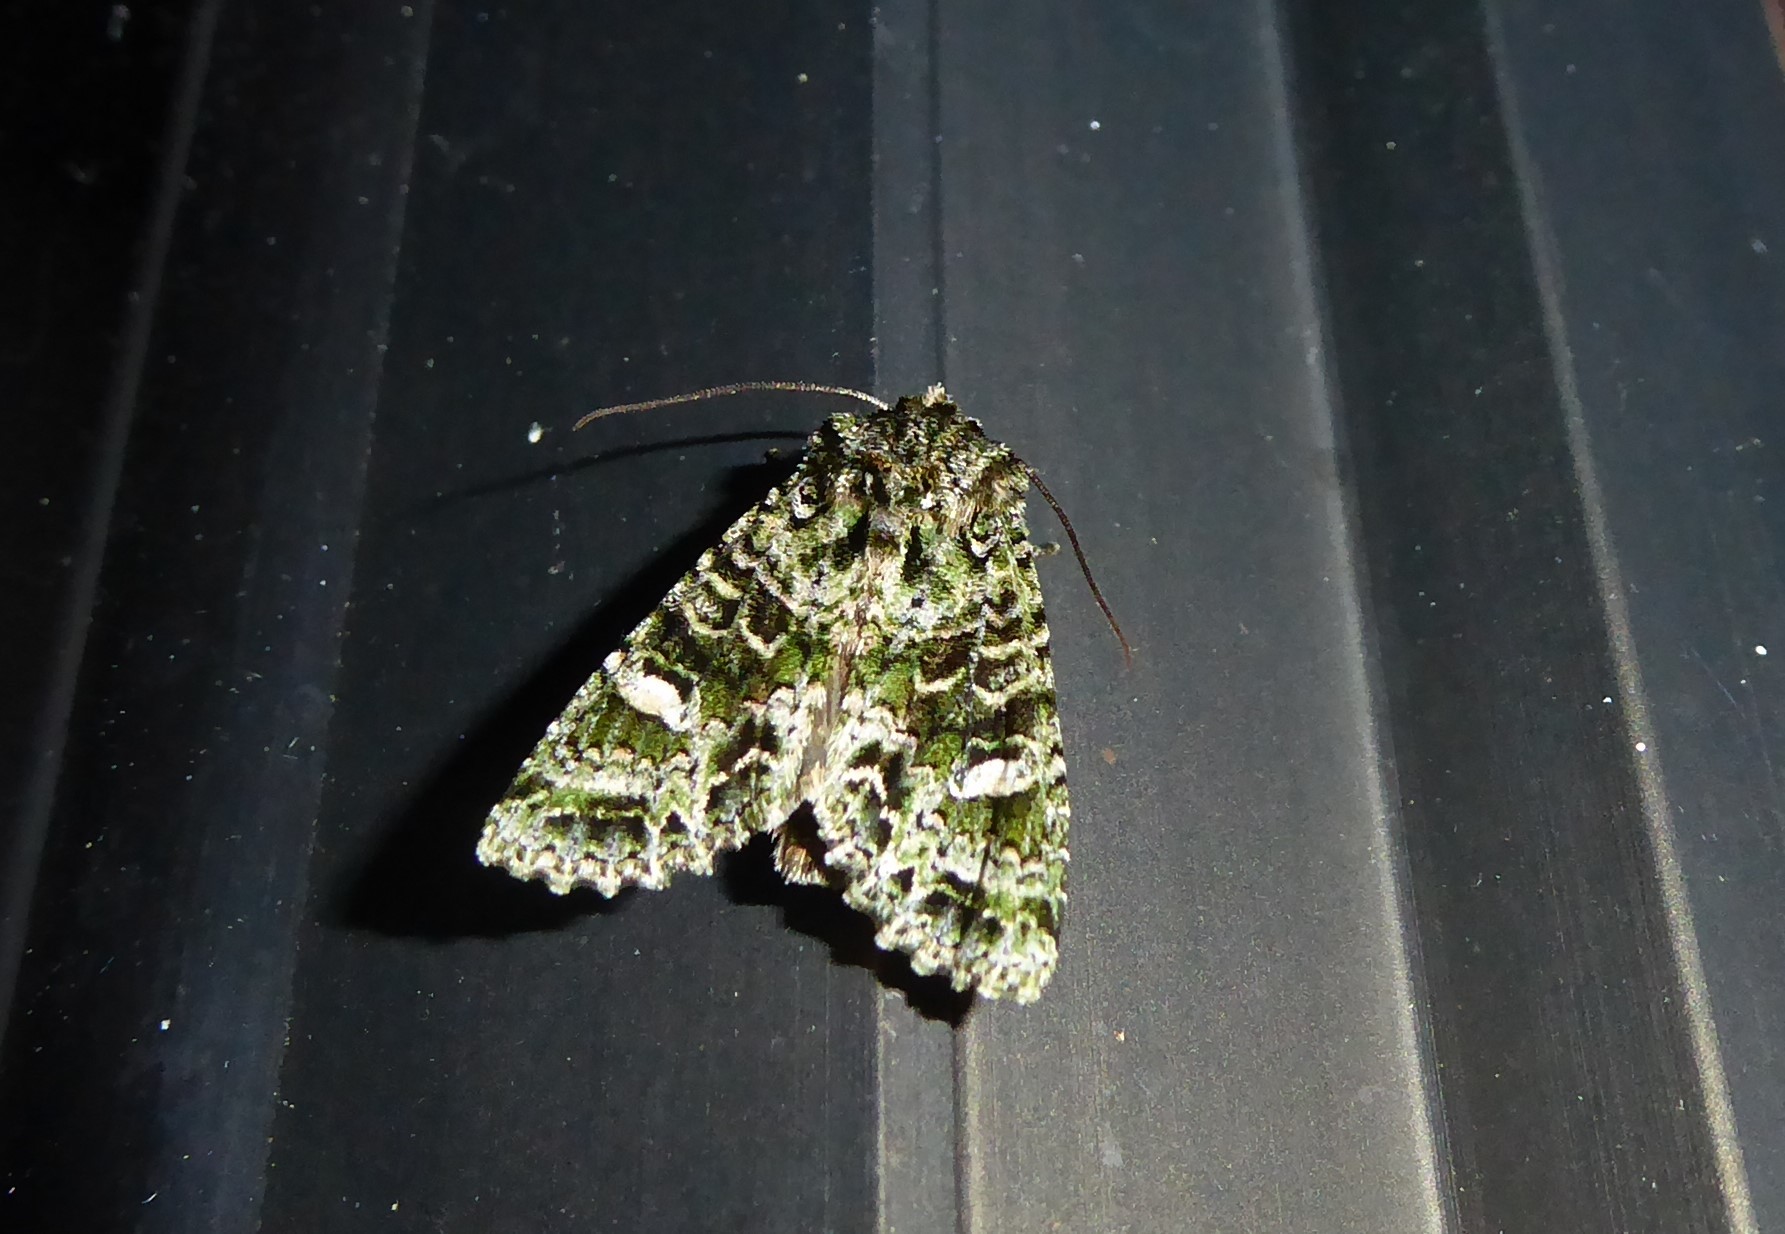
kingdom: Animalia
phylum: Arthropoda
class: Insecta
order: Lepidoptera
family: Noctuidae
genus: Ichneutica
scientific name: Ichneutica
